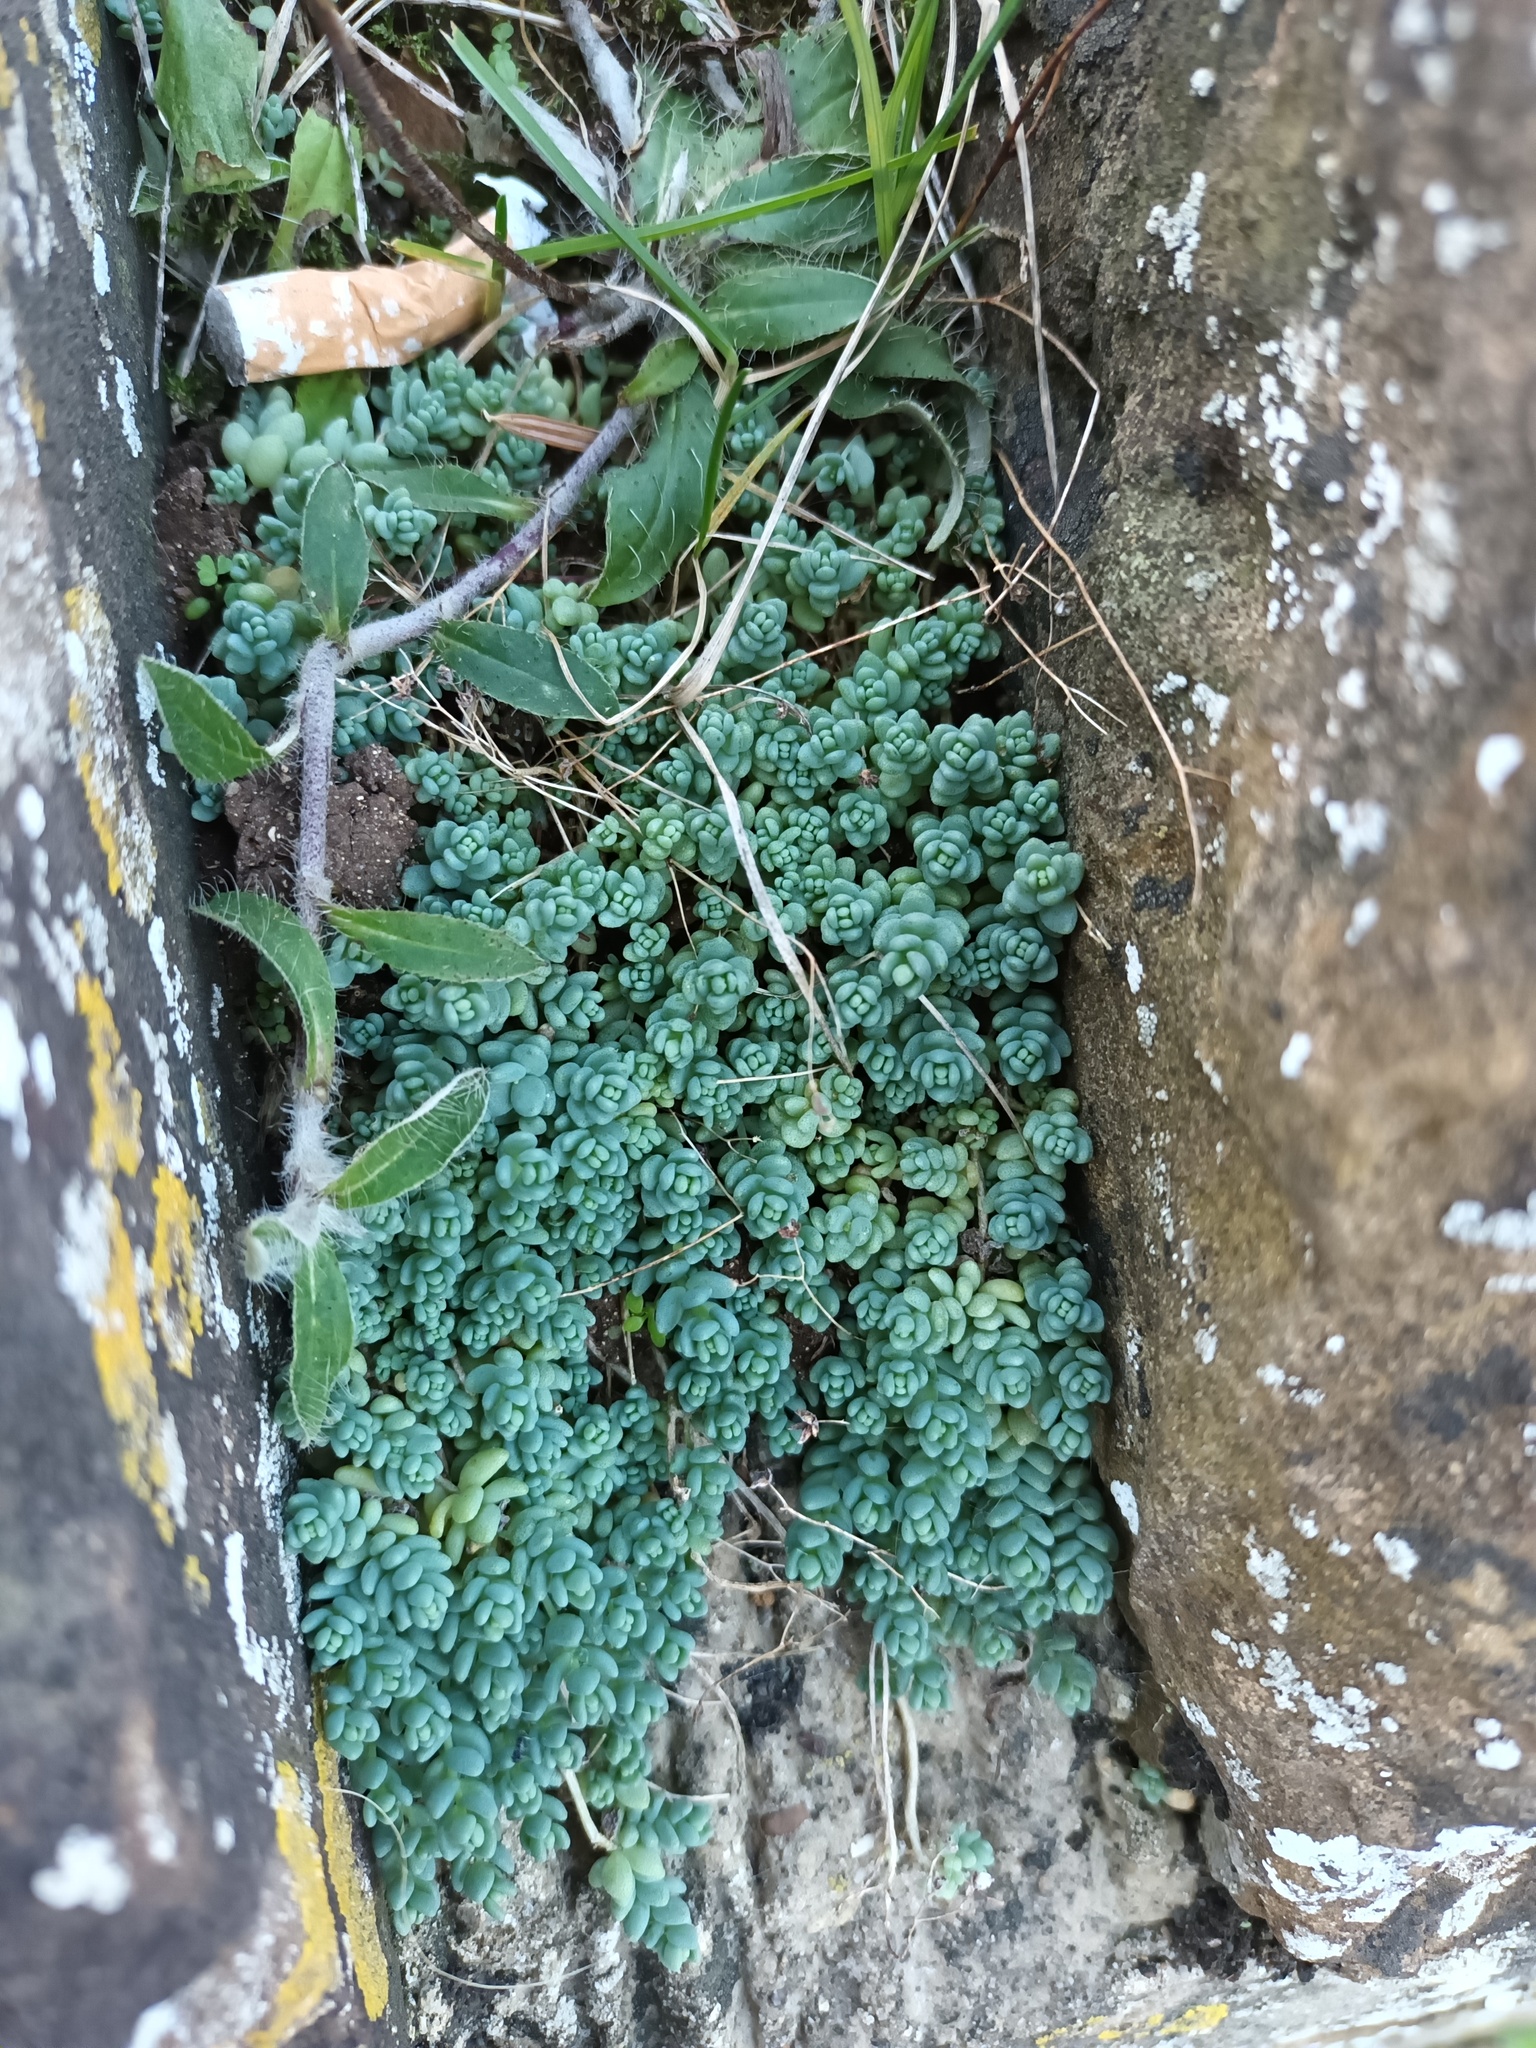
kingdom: Plantae
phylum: Tracheophyta
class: Magnoliopsida
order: Saxifragales
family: Crassulaceae
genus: Sedum
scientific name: Sedum dasyphyllum
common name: Thick-leaf stonecrop
